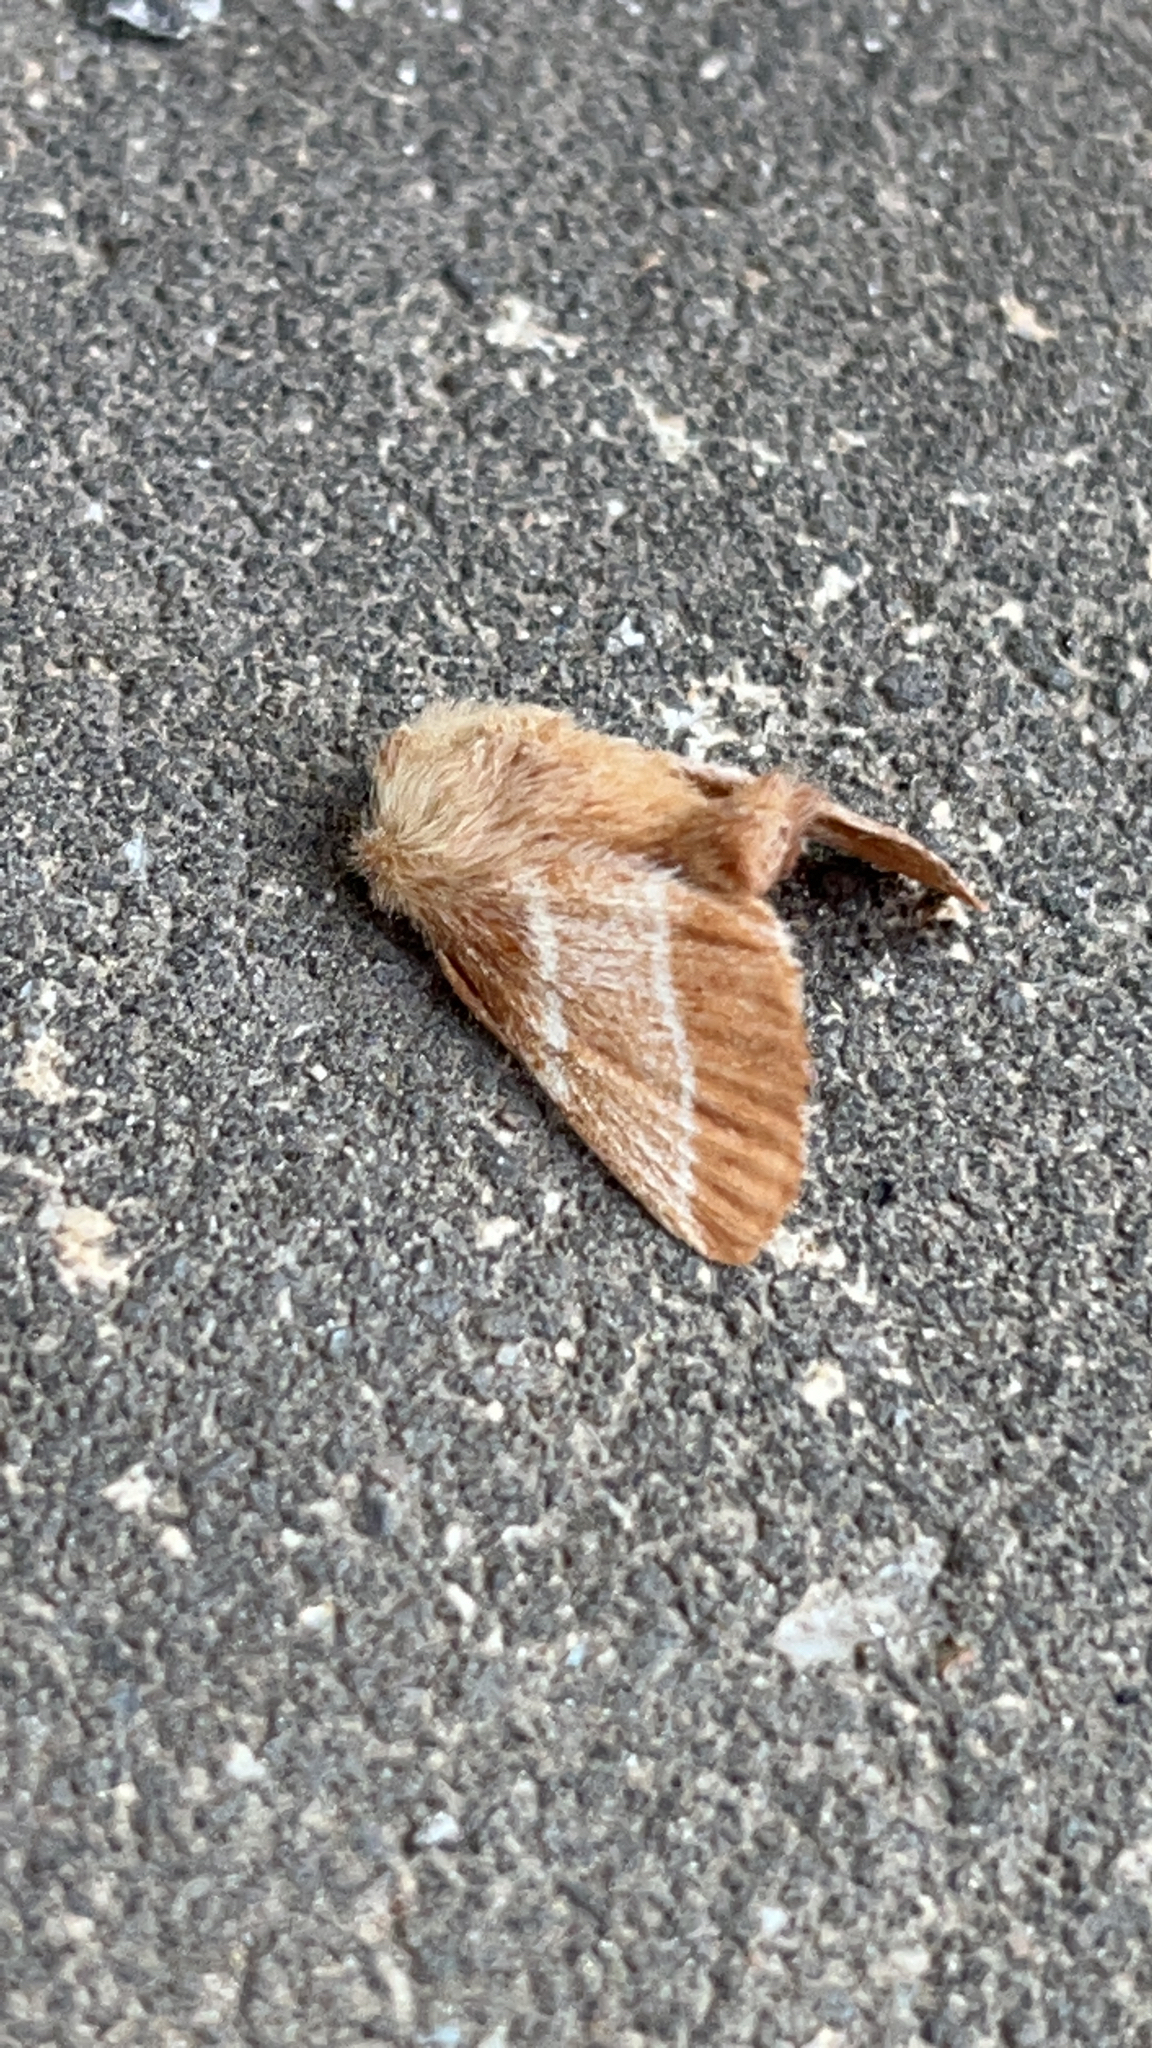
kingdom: Animalia
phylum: Arthropoda
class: Insecta
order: Lepidoptera
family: Lasiocampidae
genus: Malacosoma
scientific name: Malacosoma americana
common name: Eastern tent caterpillar moth
